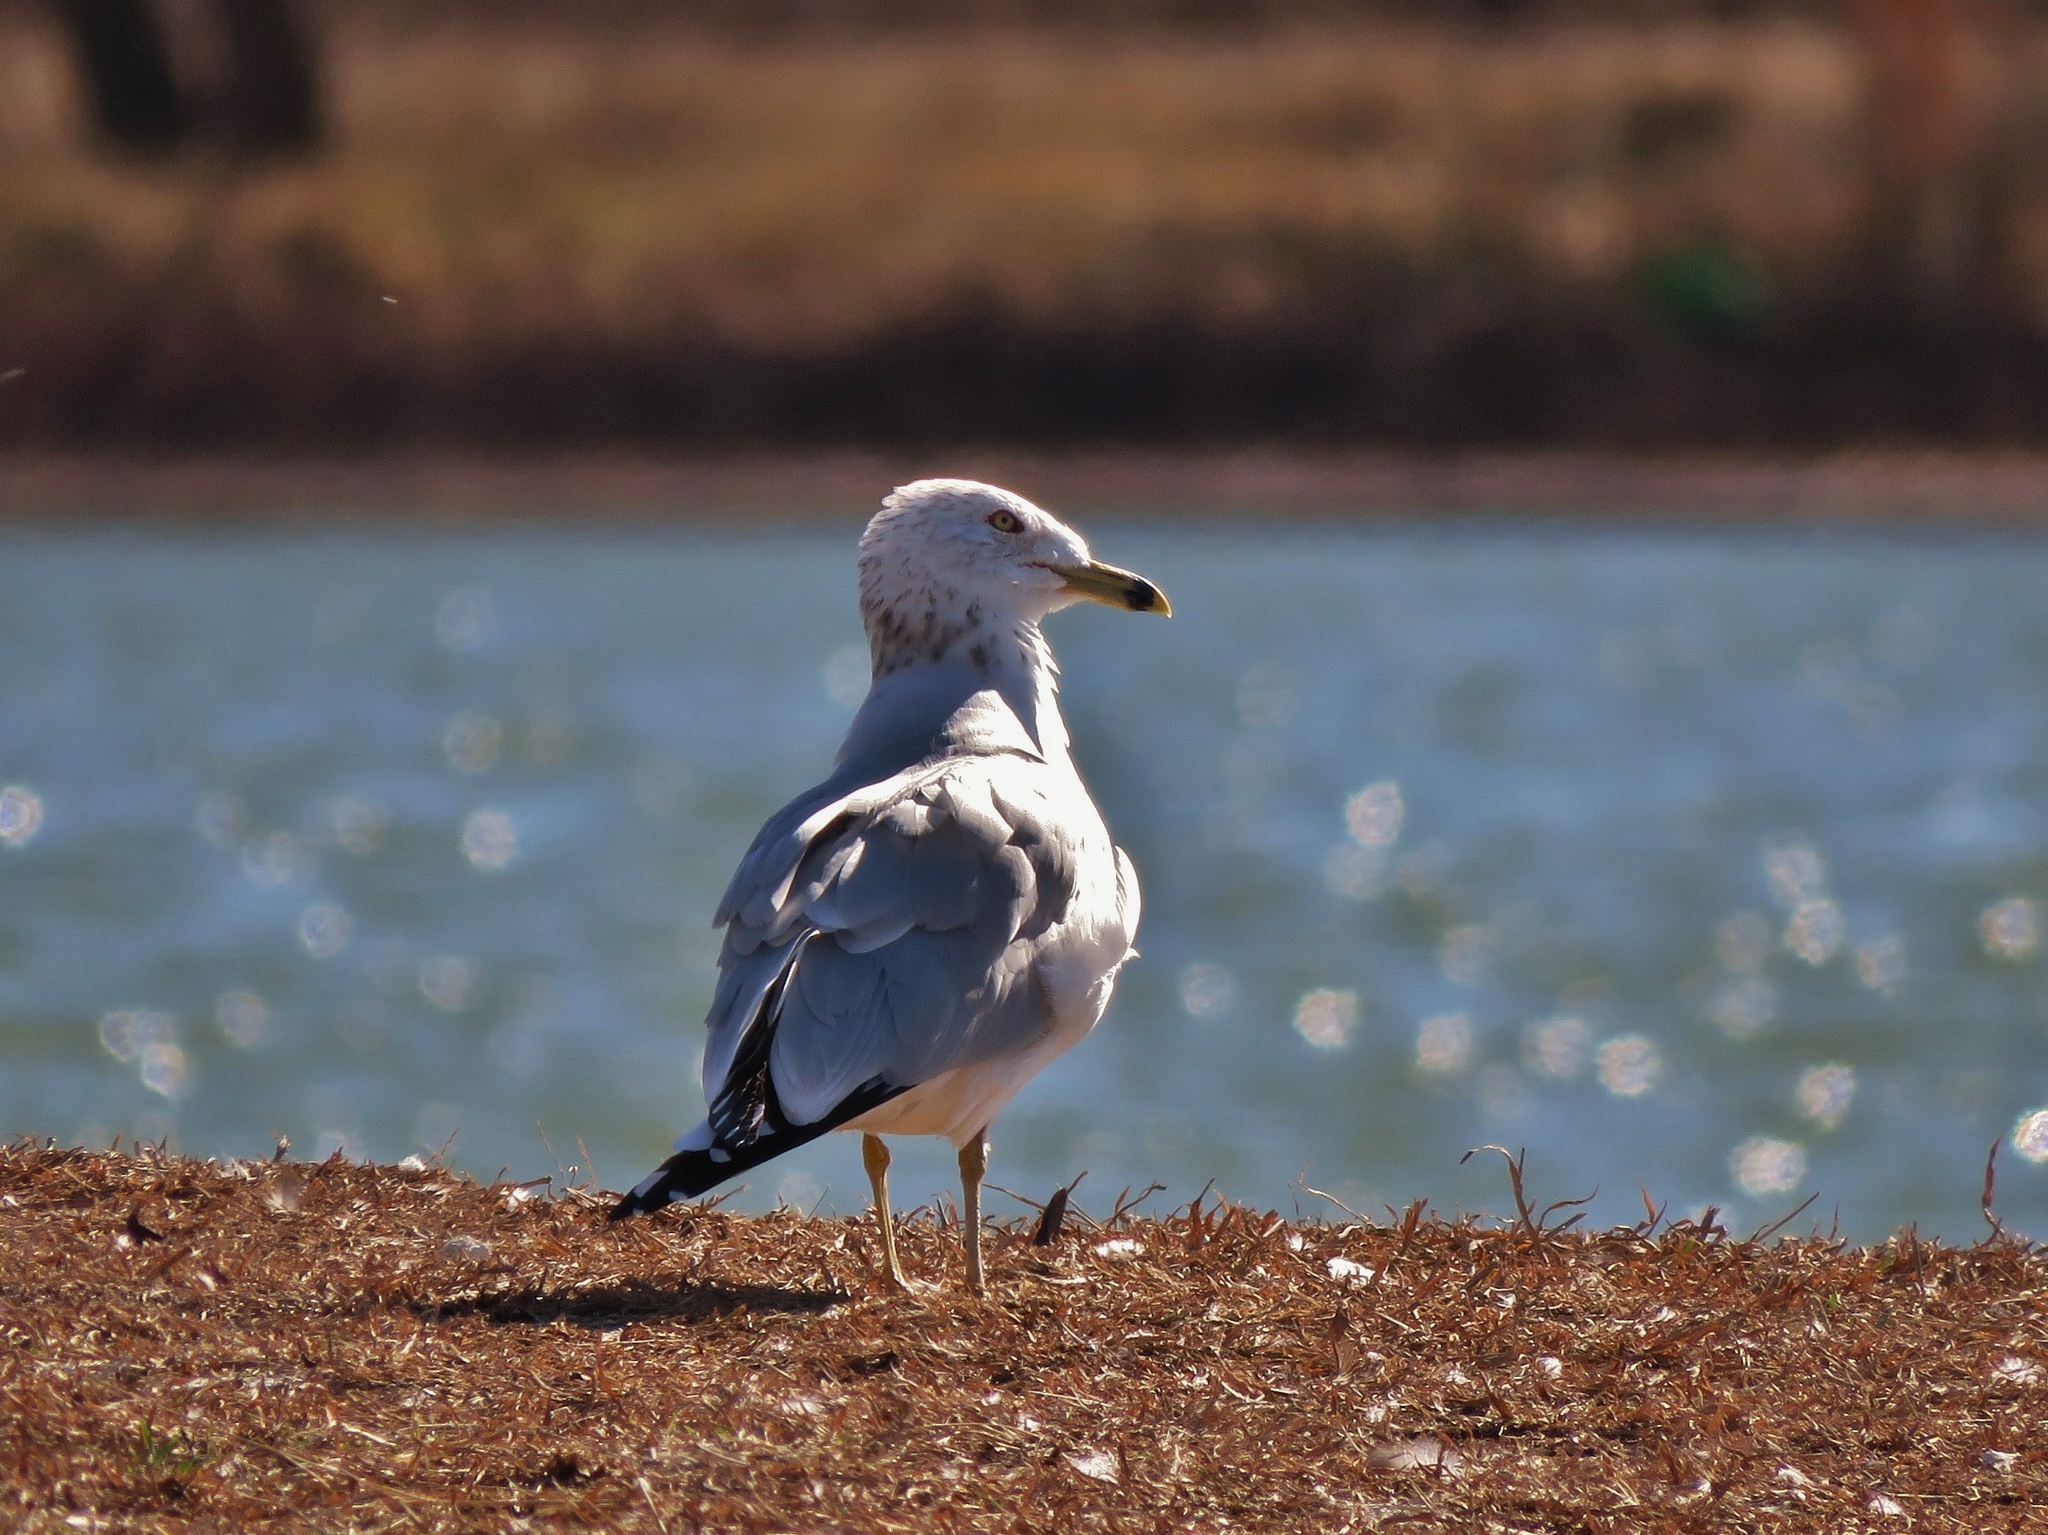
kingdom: Animalia
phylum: Chordata
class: Aves
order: Charadriiformes
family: Laridae
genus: Larus
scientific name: Larus delawarensis
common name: Ring-billed gull
